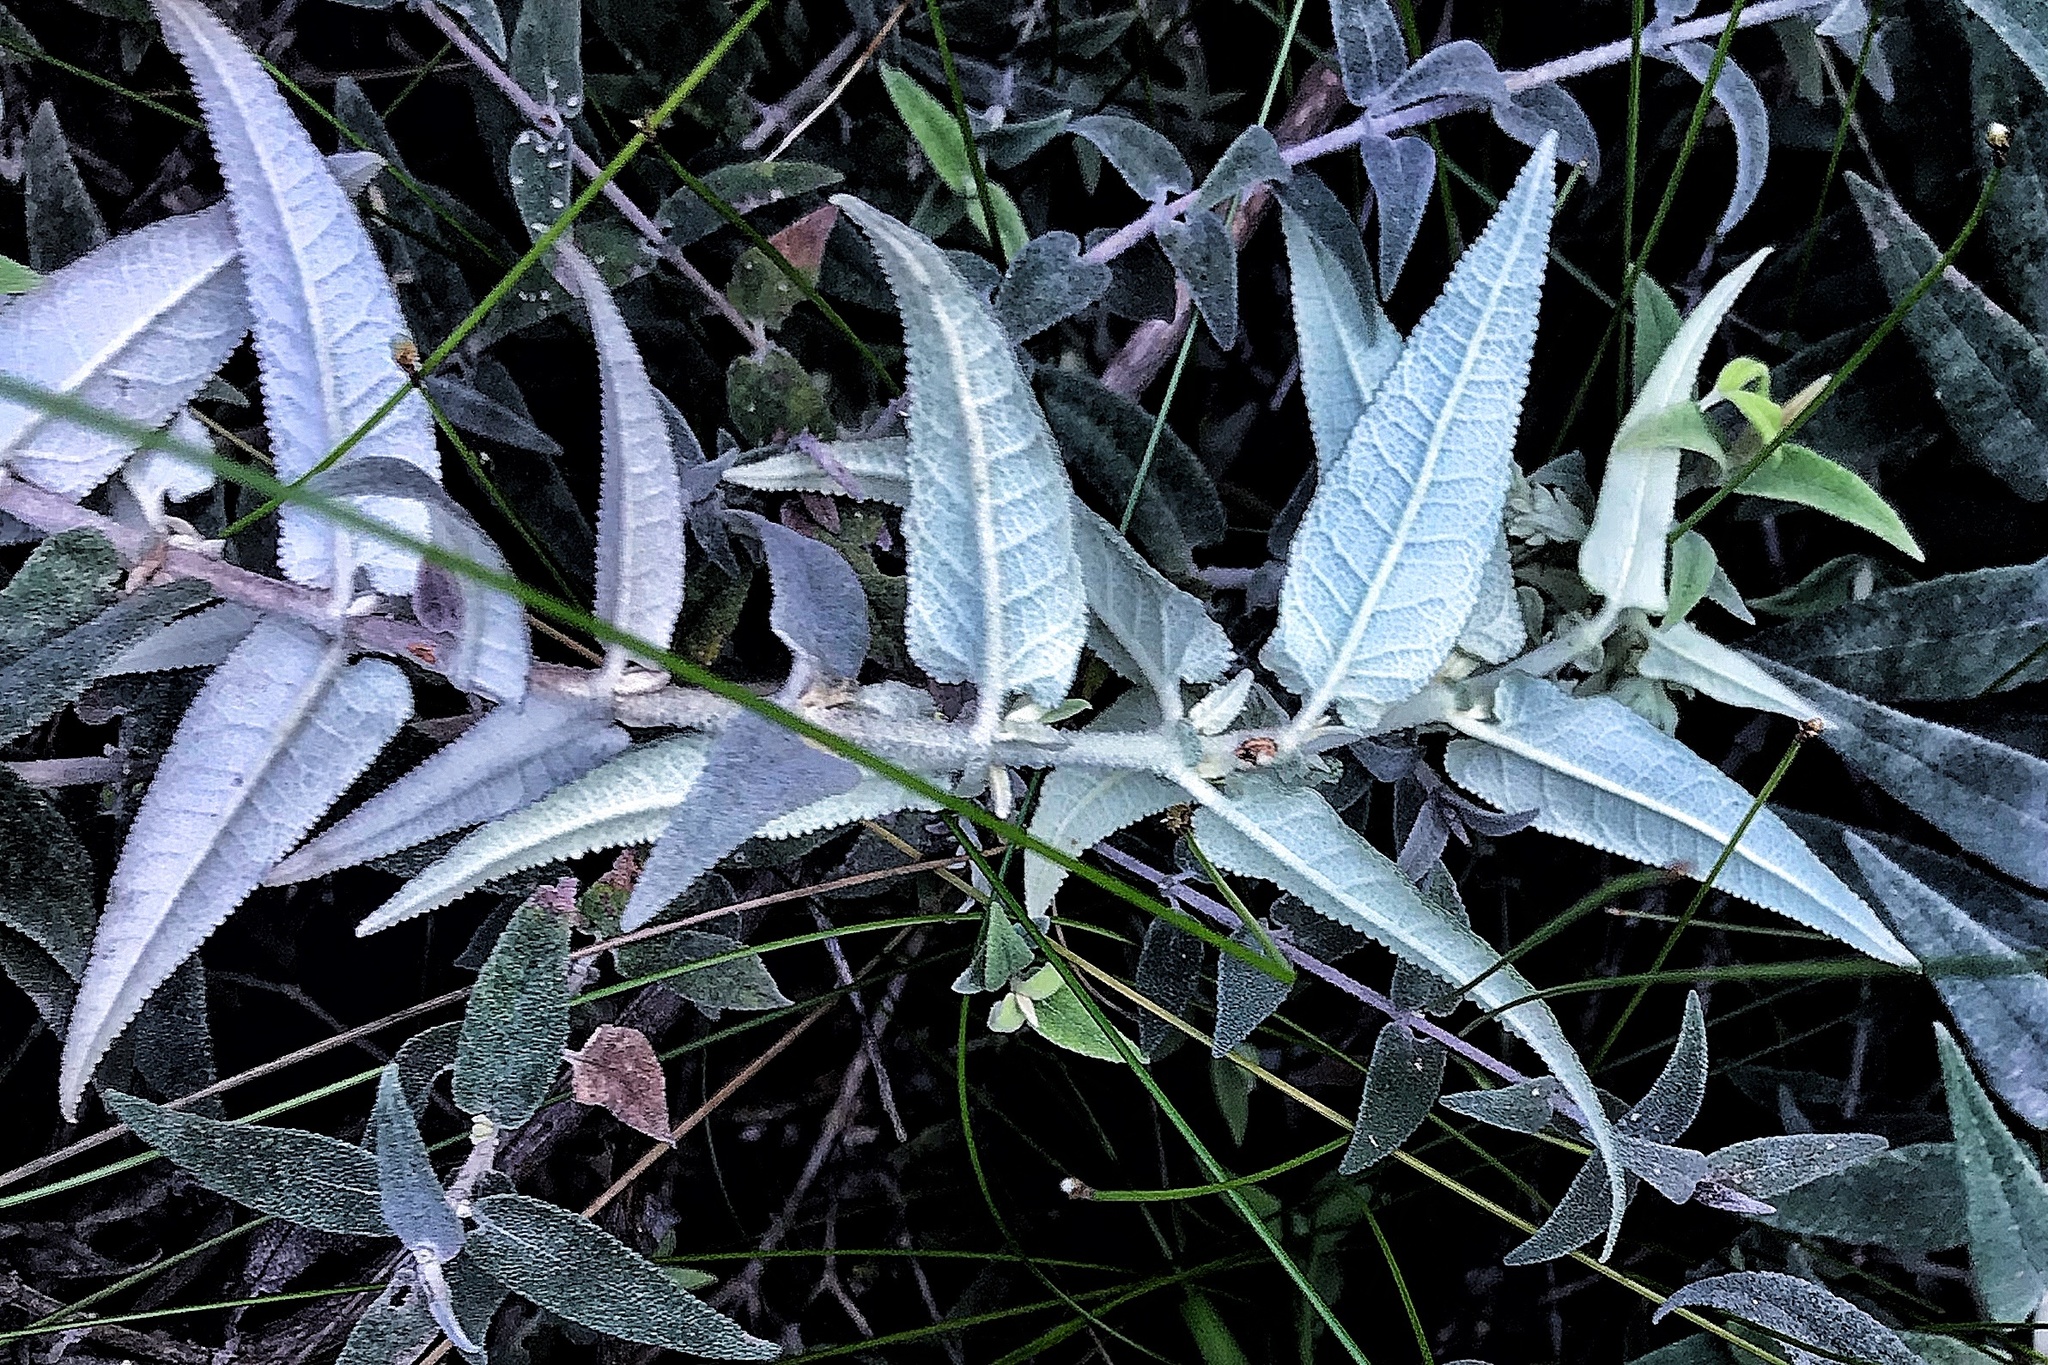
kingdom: Plantae
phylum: Tracheophyta
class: Magnoliopsida
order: Lamiales
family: Scrophulariaceae
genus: Buddleja
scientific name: Buddleja salviifolia
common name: Sagewood
